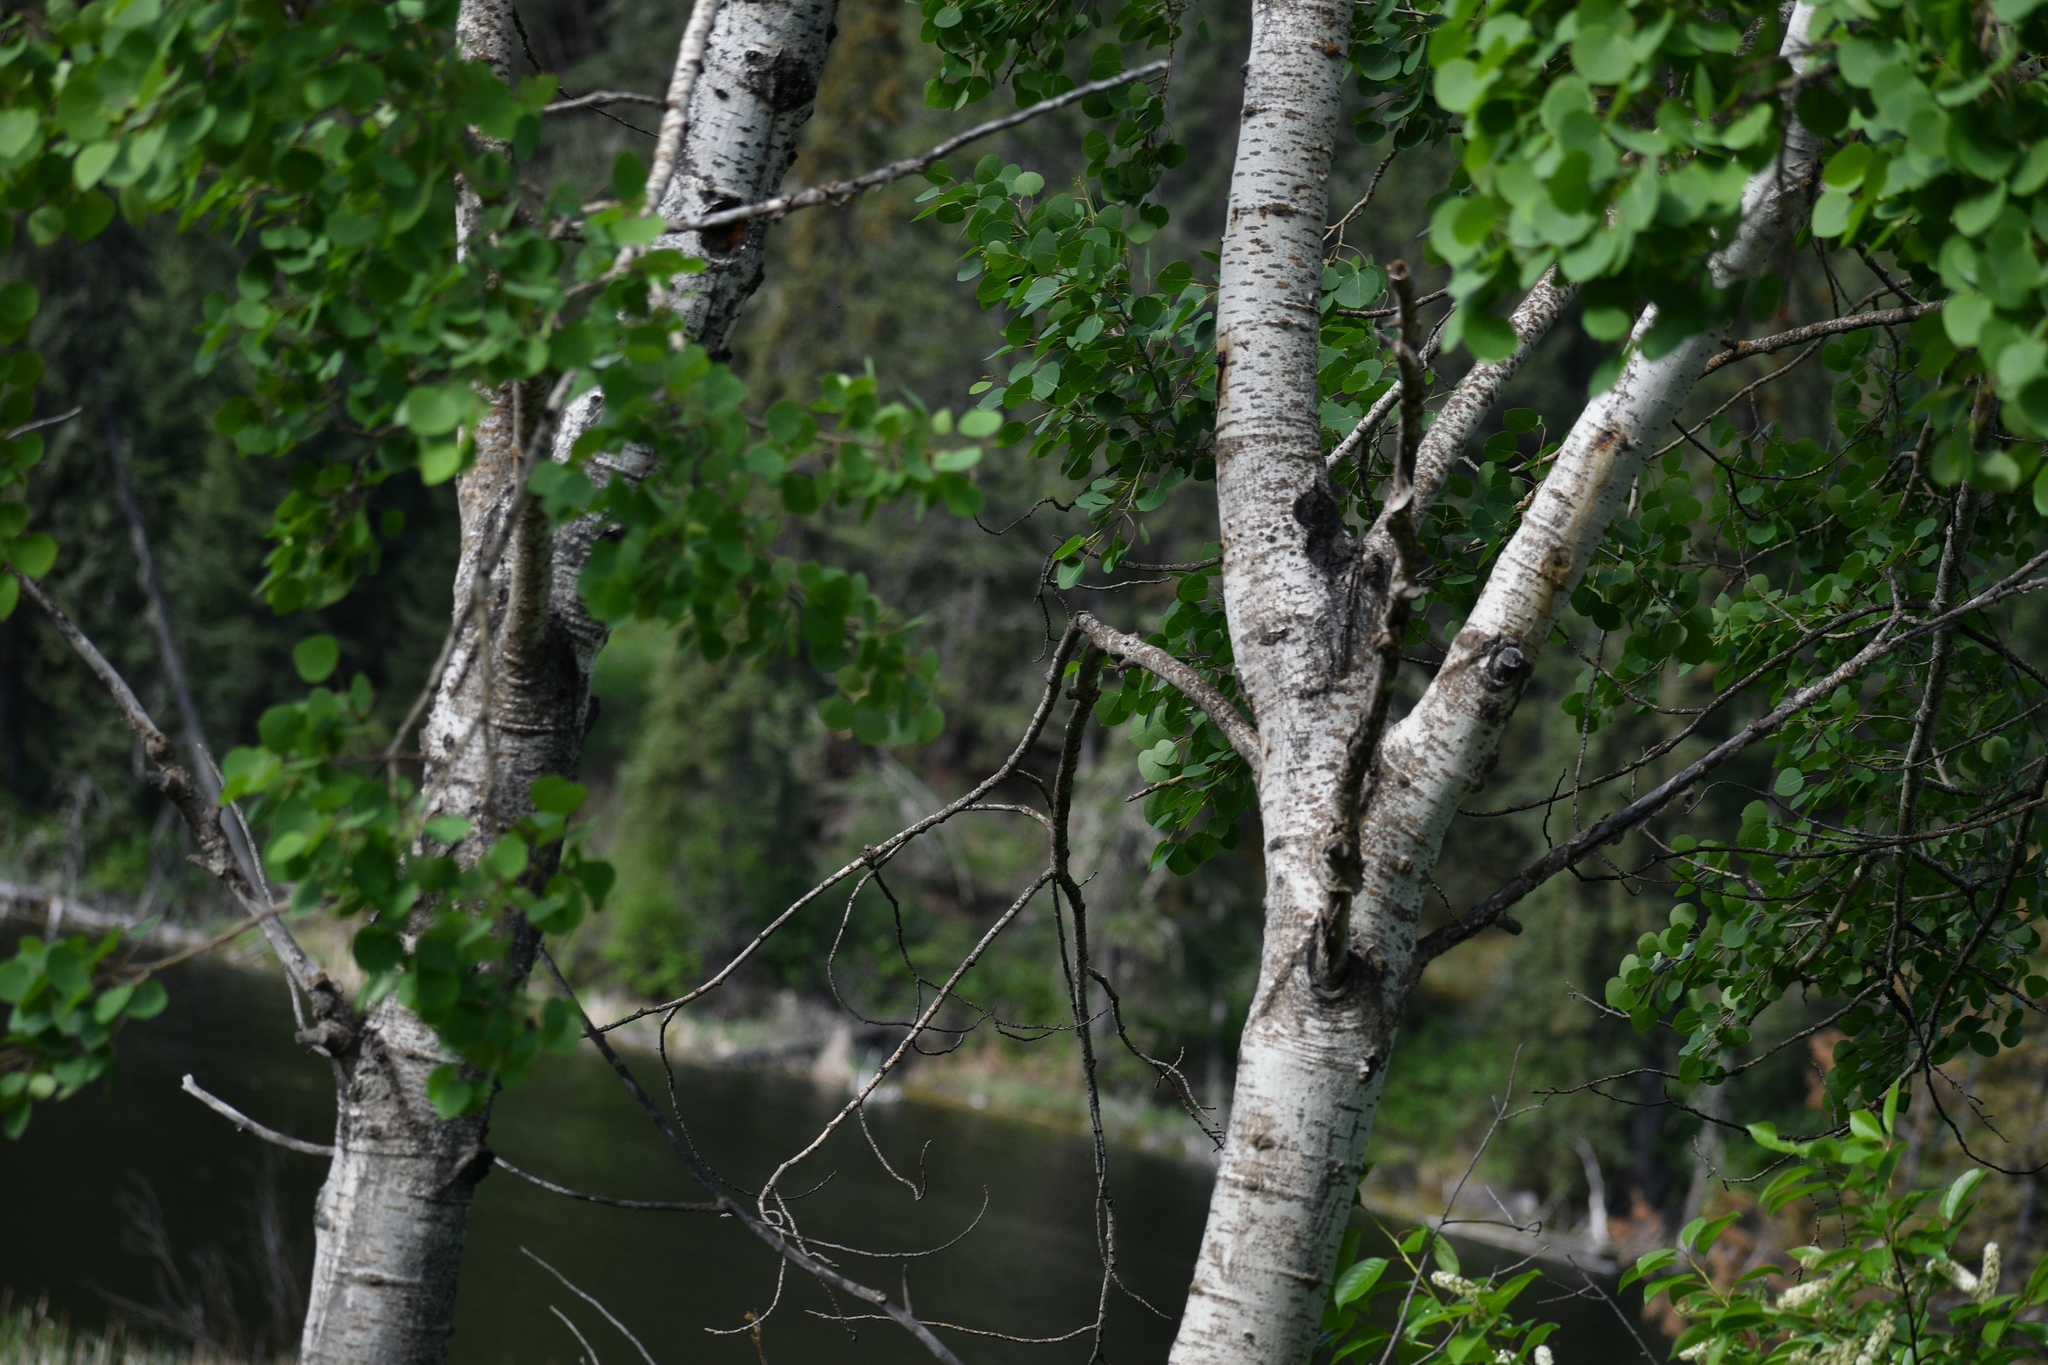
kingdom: Plantae
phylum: Tracheophyta
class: Magnoliopsida
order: Malpighiales
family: Salicaceae
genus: Populus
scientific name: Populus tremuloides
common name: Quaking aspen
